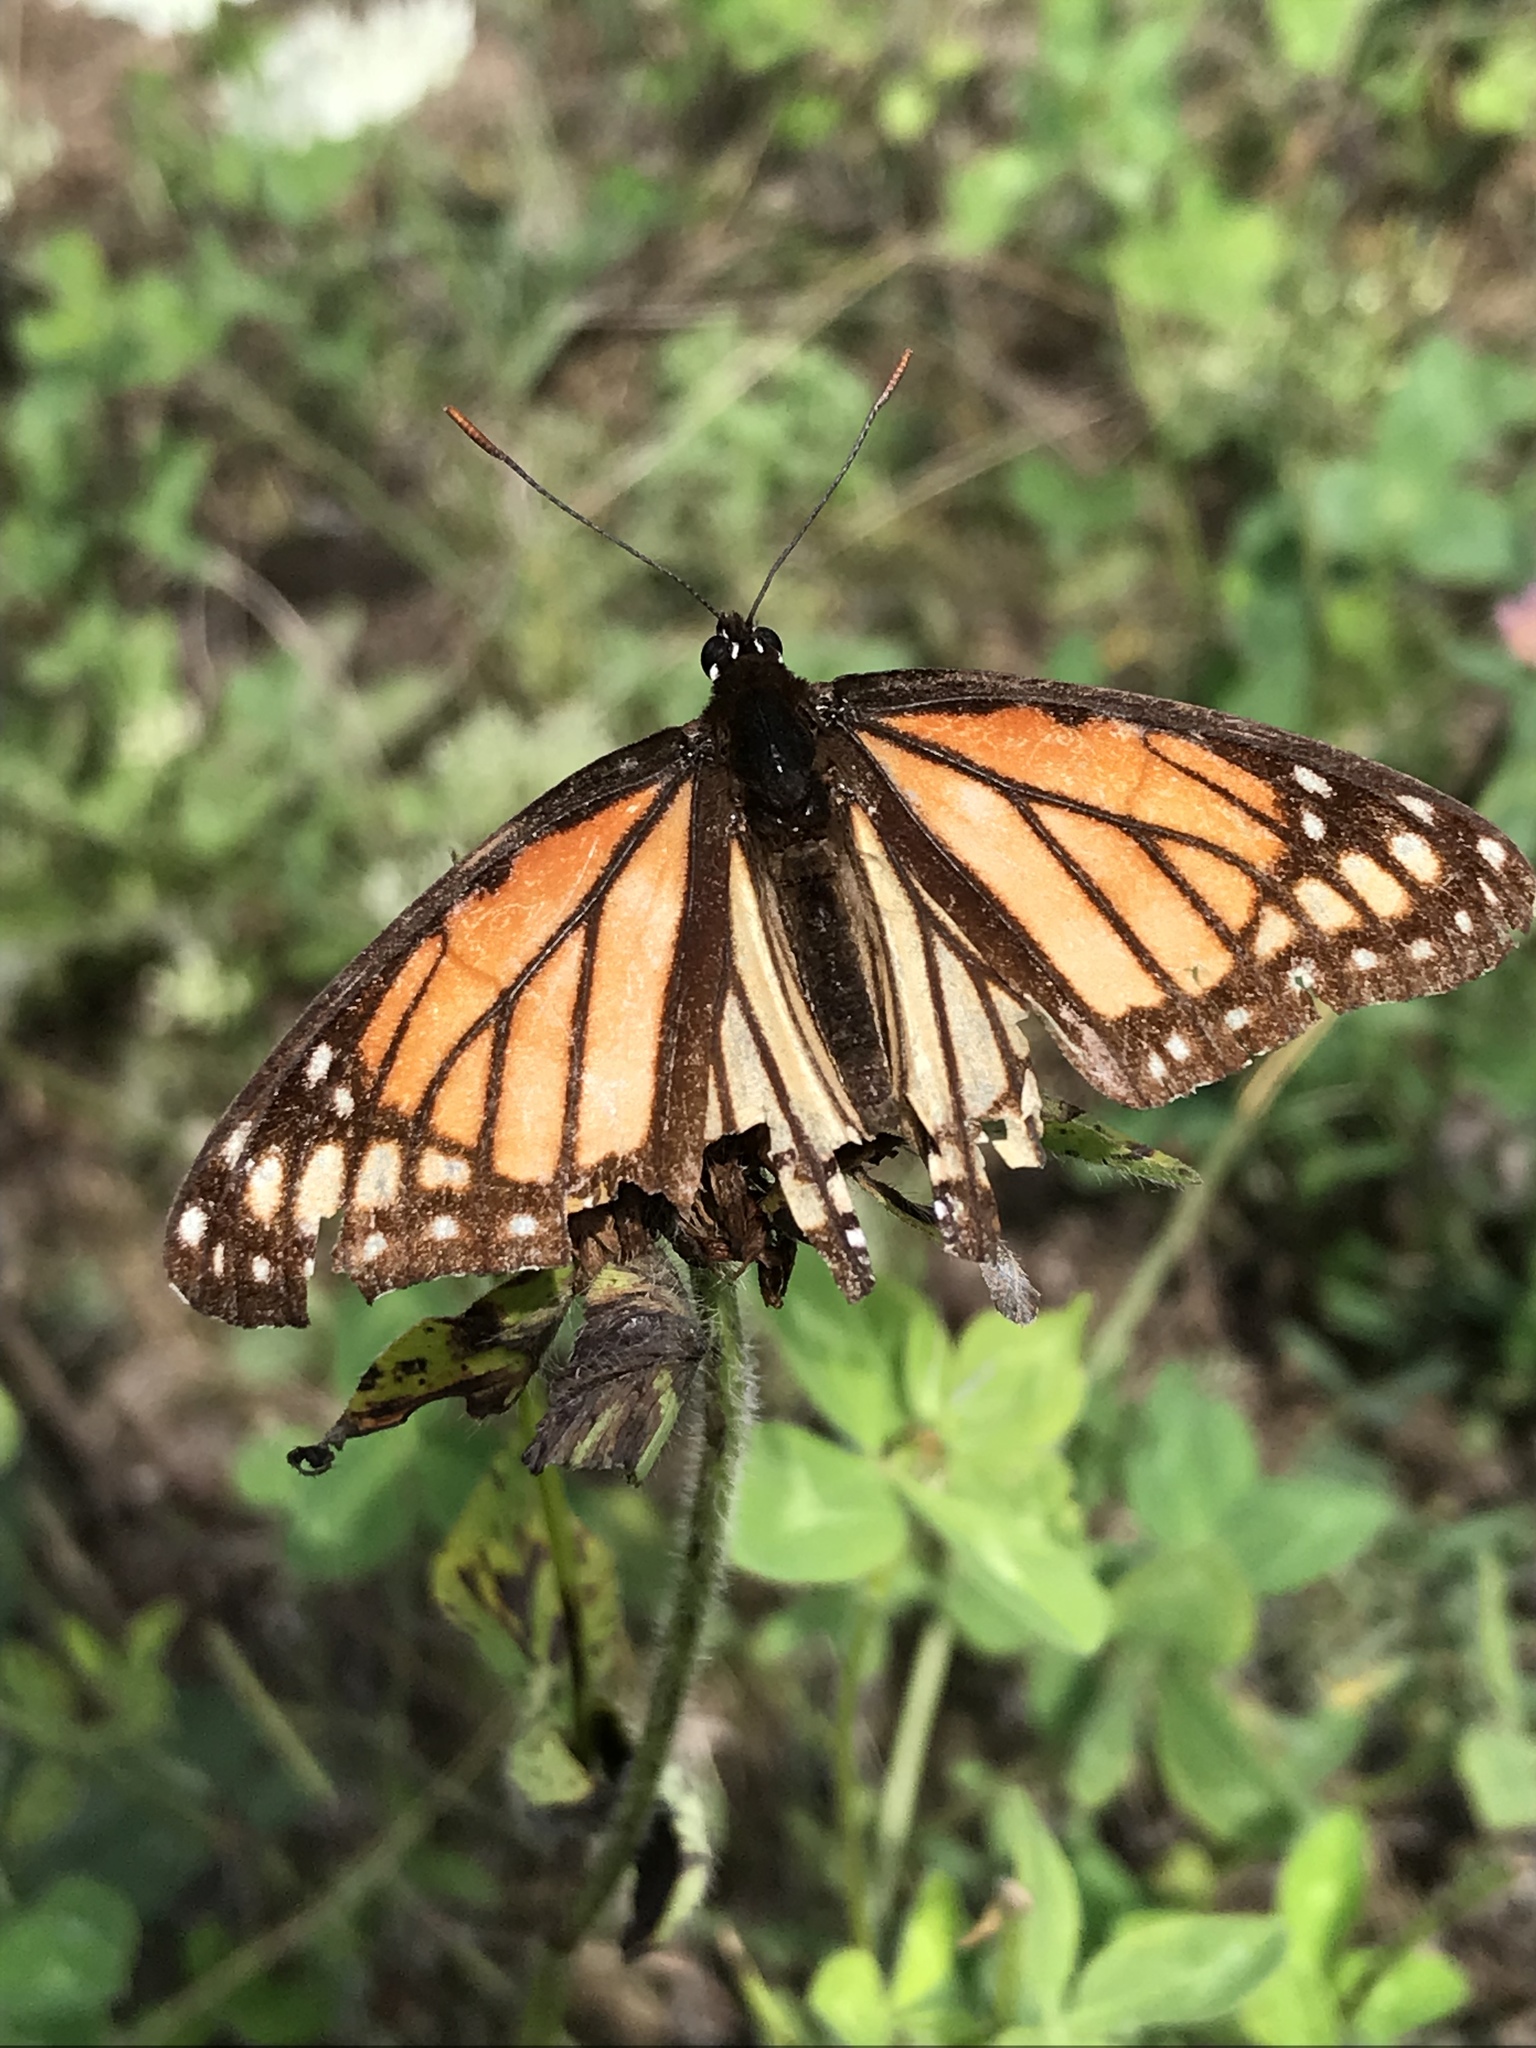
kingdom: Animalia
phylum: Arthropoda
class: Insecta
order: Lepidoptera
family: Nymphalidae
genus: Limenitis
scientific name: Limenitis archippus
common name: Viceroy
